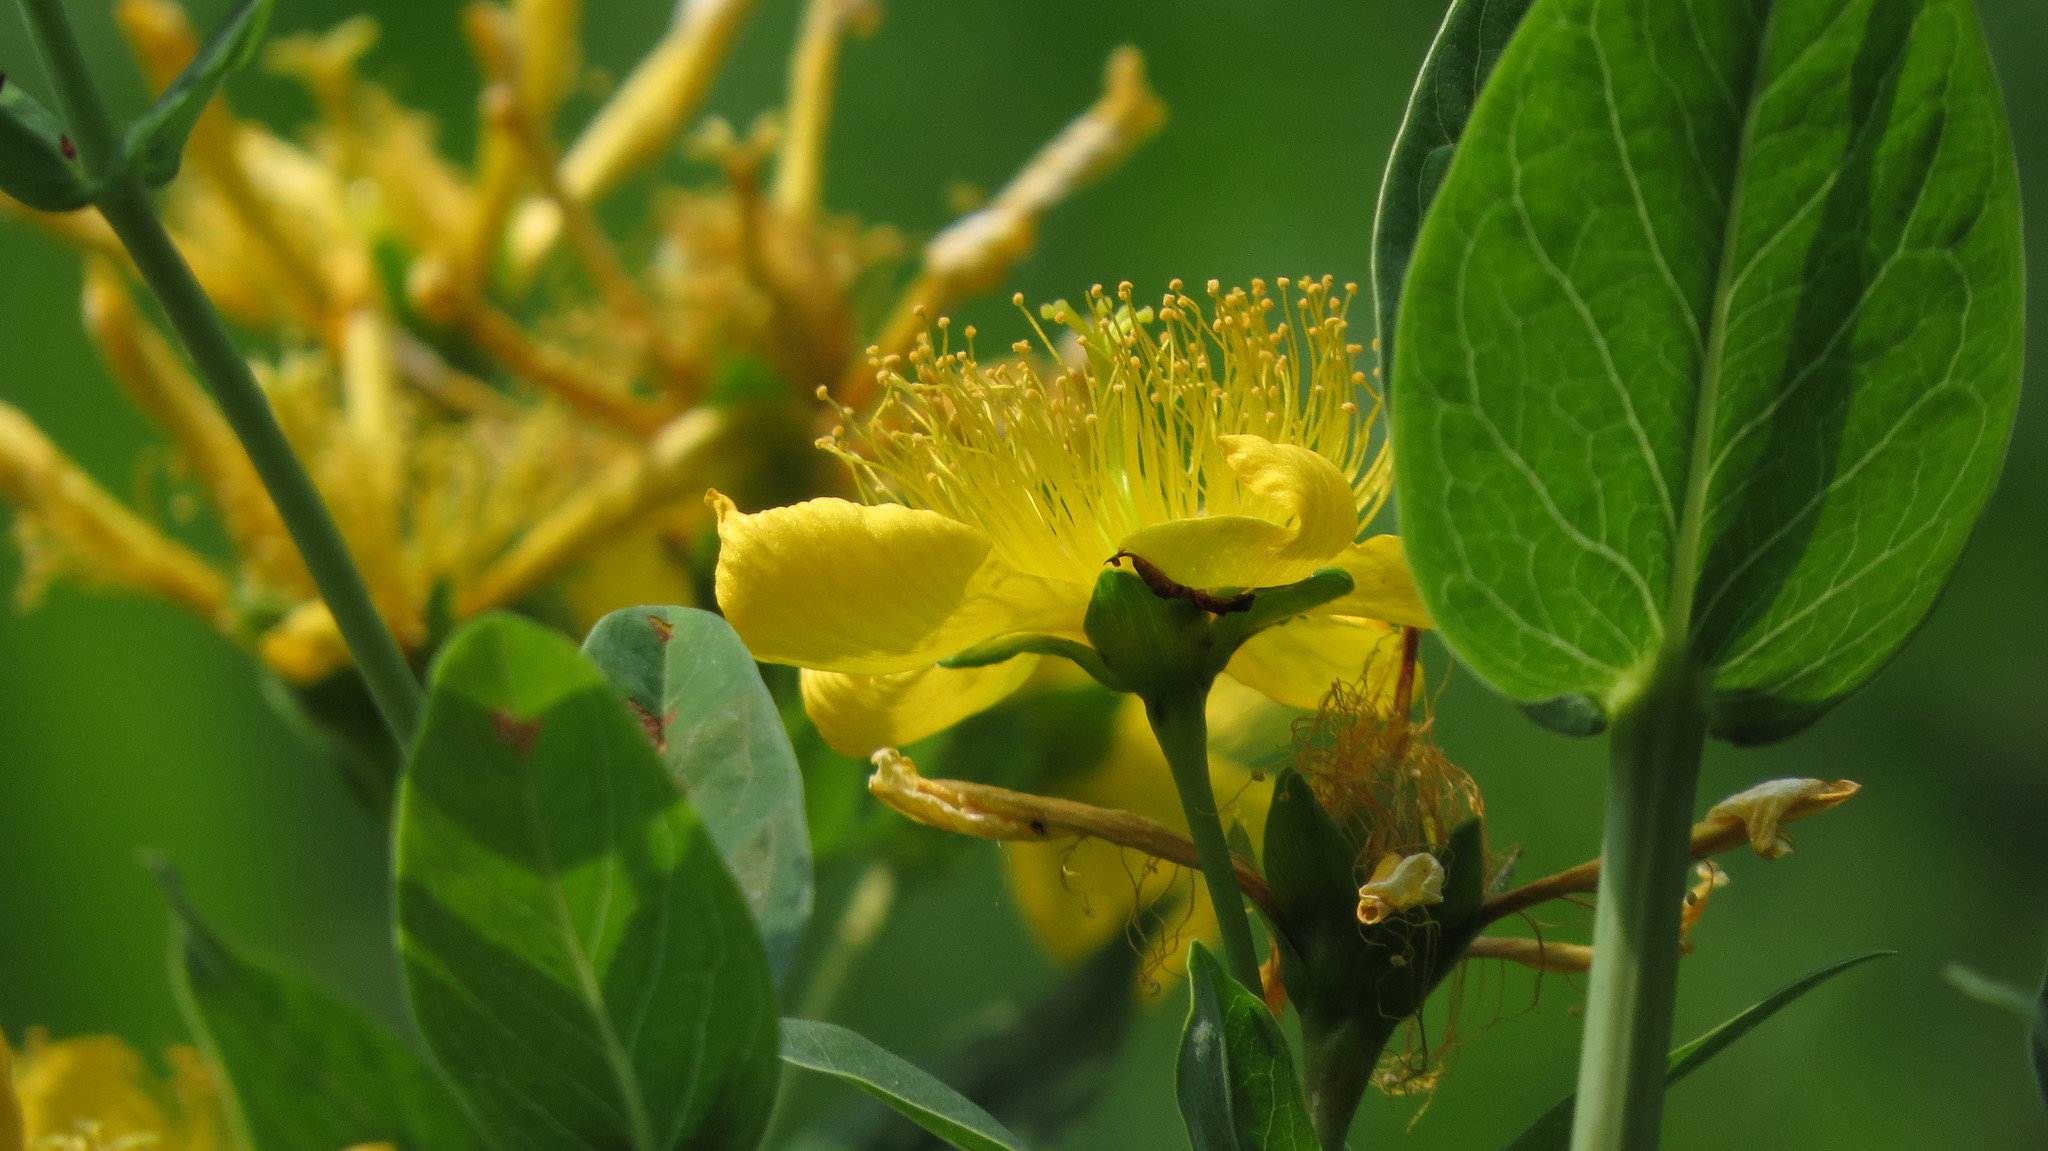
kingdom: Plantae
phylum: Tracheophyta
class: Magnoliopsida
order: Malpighiales
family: Hypericaceae
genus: Hypericum
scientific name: Hypericum ascyron
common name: Giant st. john's-wort
